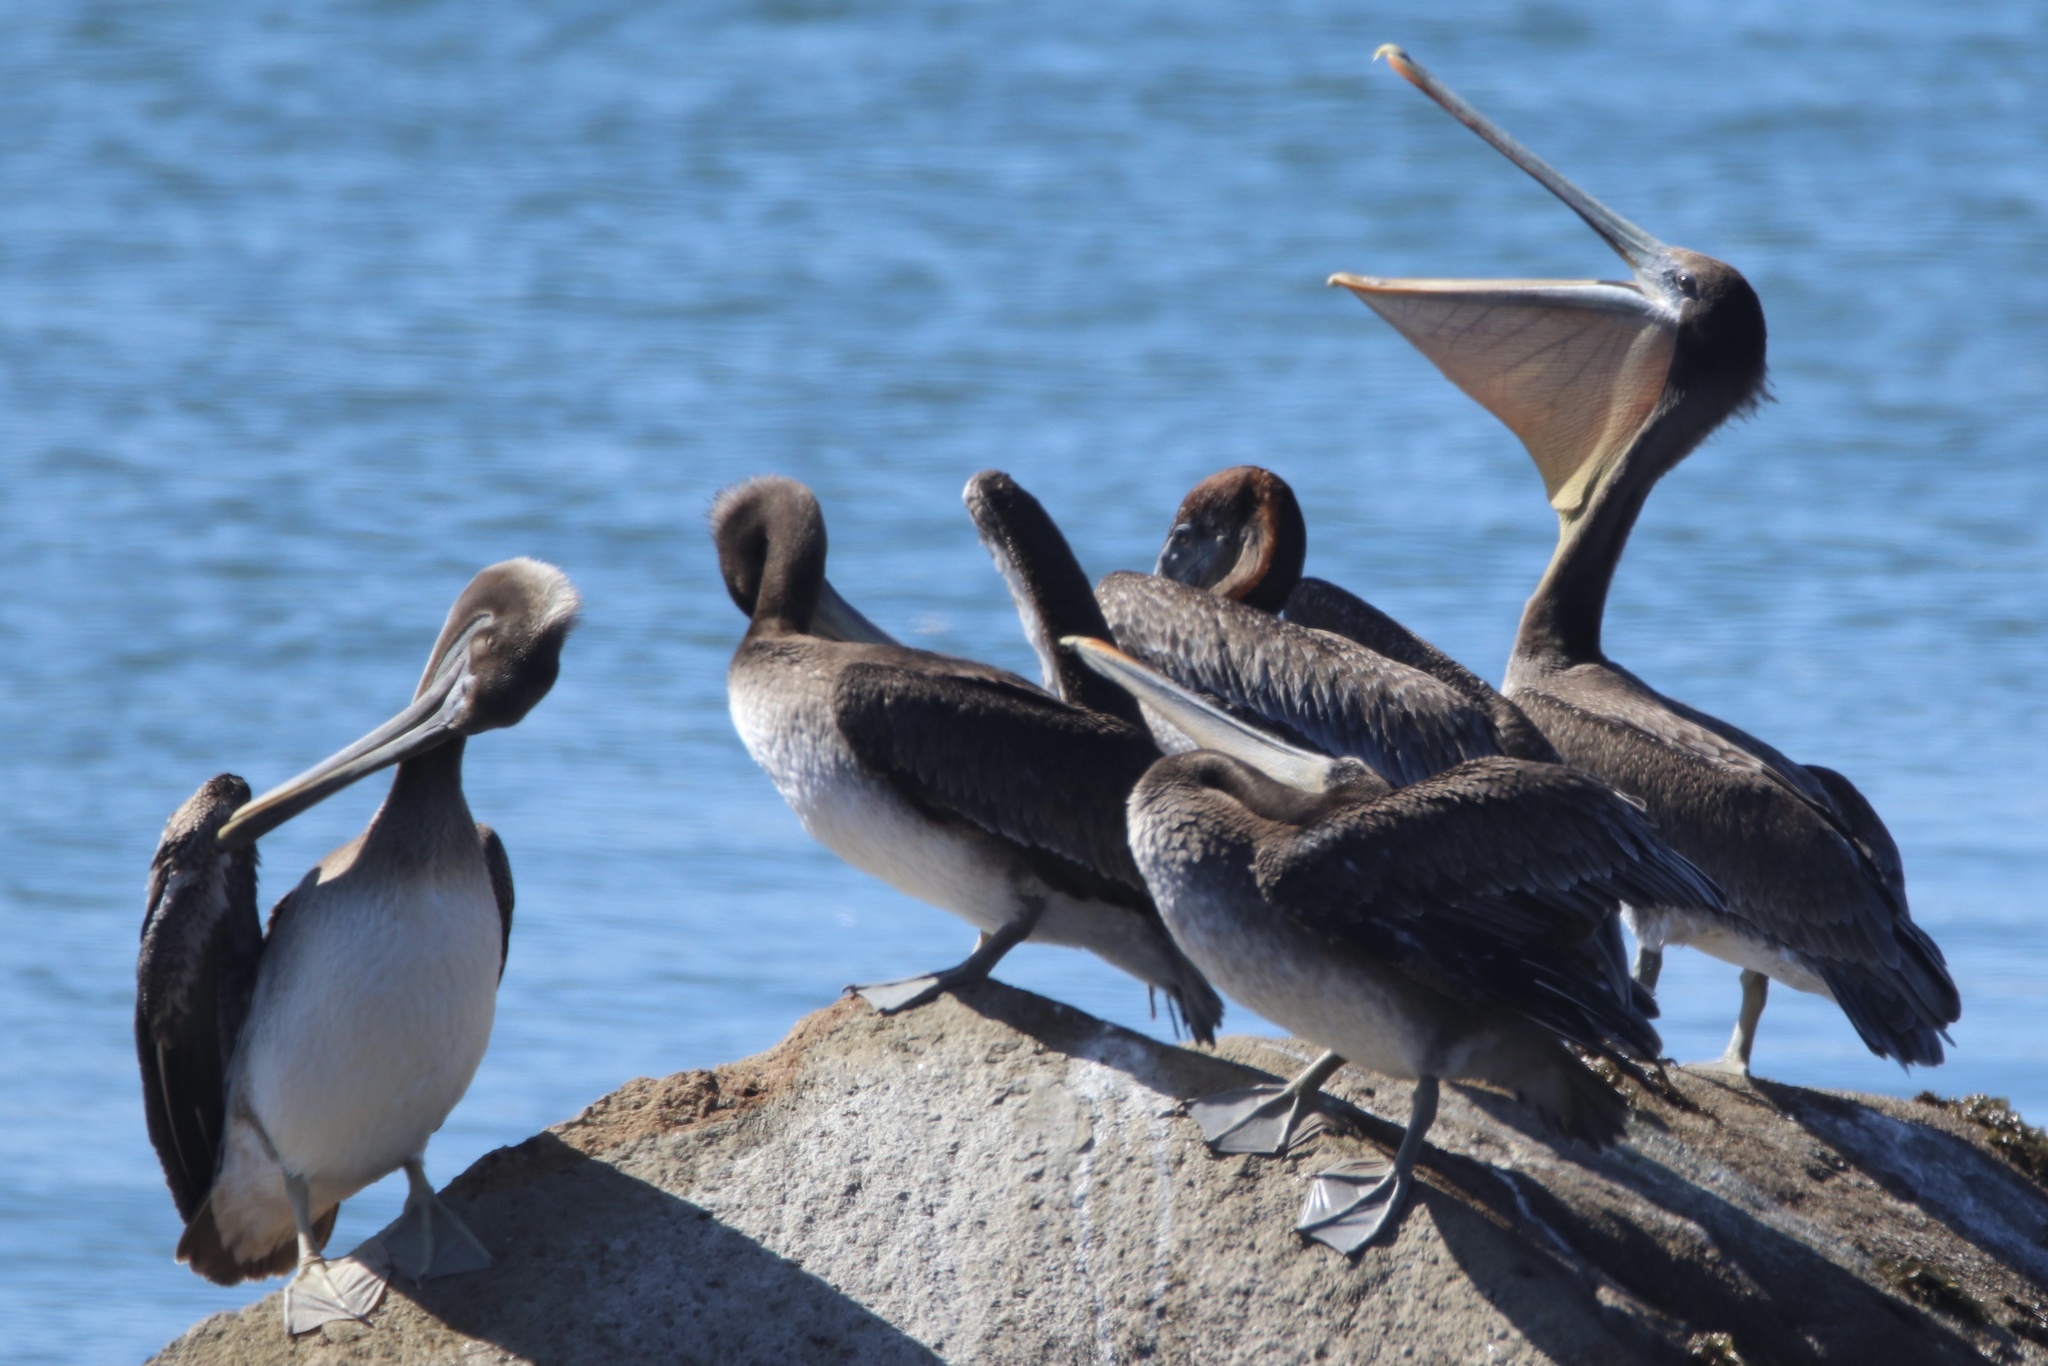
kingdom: Animalia
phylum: Chordata
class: Aves
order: Pelecaniformes
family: Pelecanidae
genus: Pelecanus
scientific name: Pelecanus occidentalis
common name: Brown pelican
